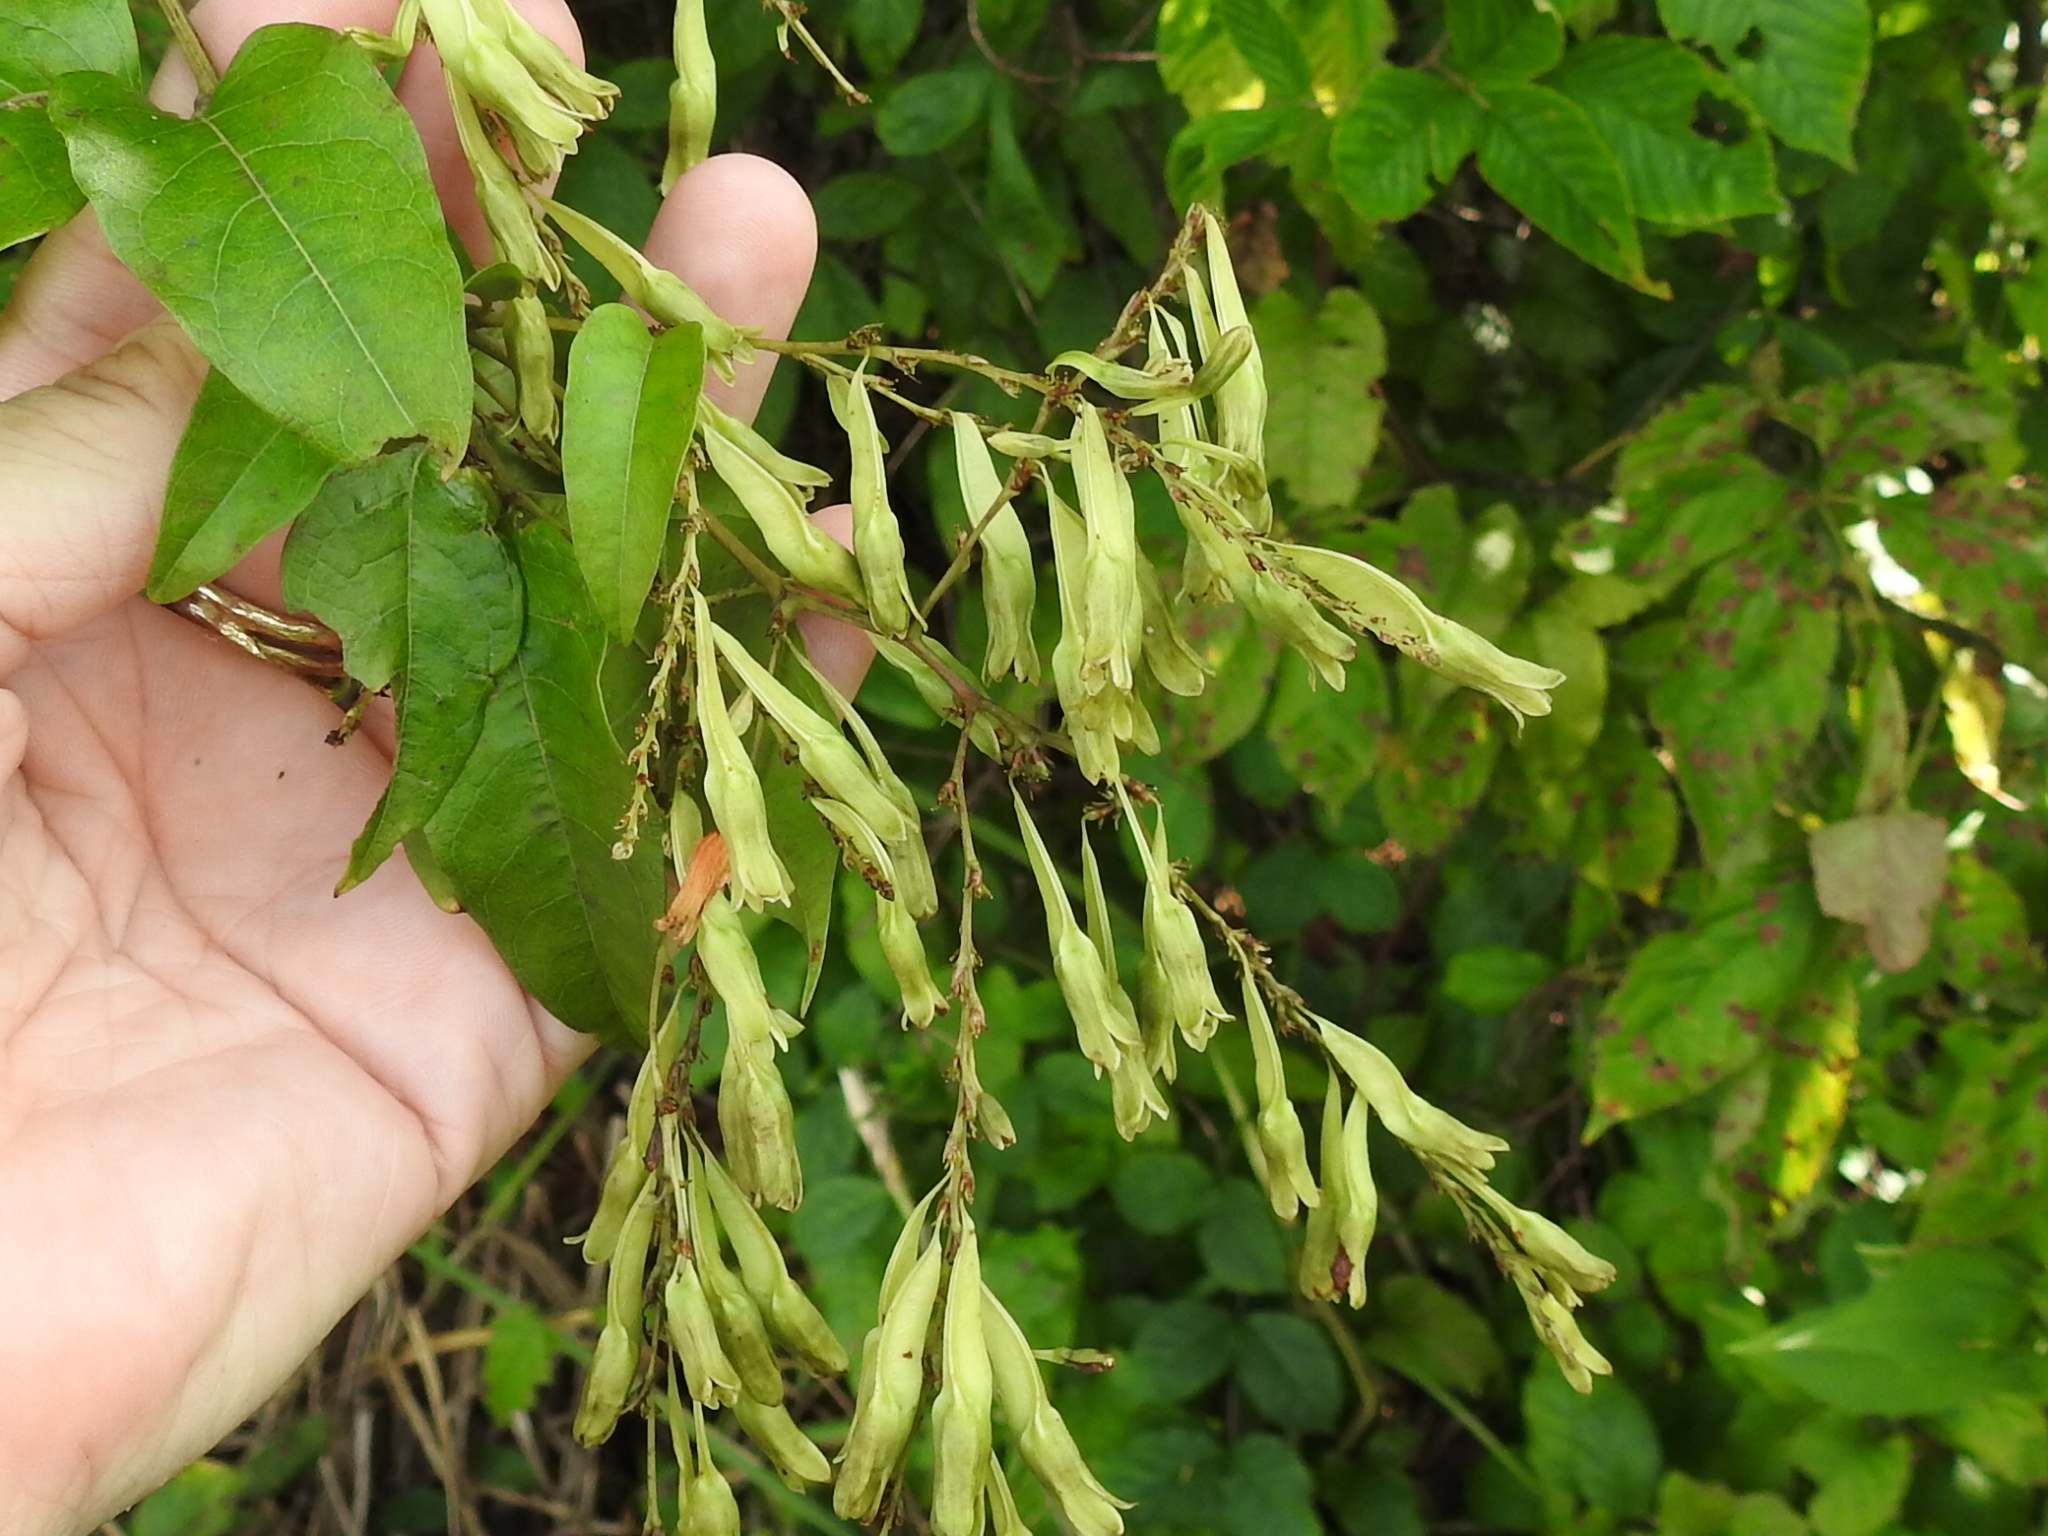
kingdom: Plantae
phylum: Tracheophyta
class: Magnoliopsida
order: Caryophyllales
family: Polygonaceae
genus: Brunnichia
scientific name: Brunnichia ovata
